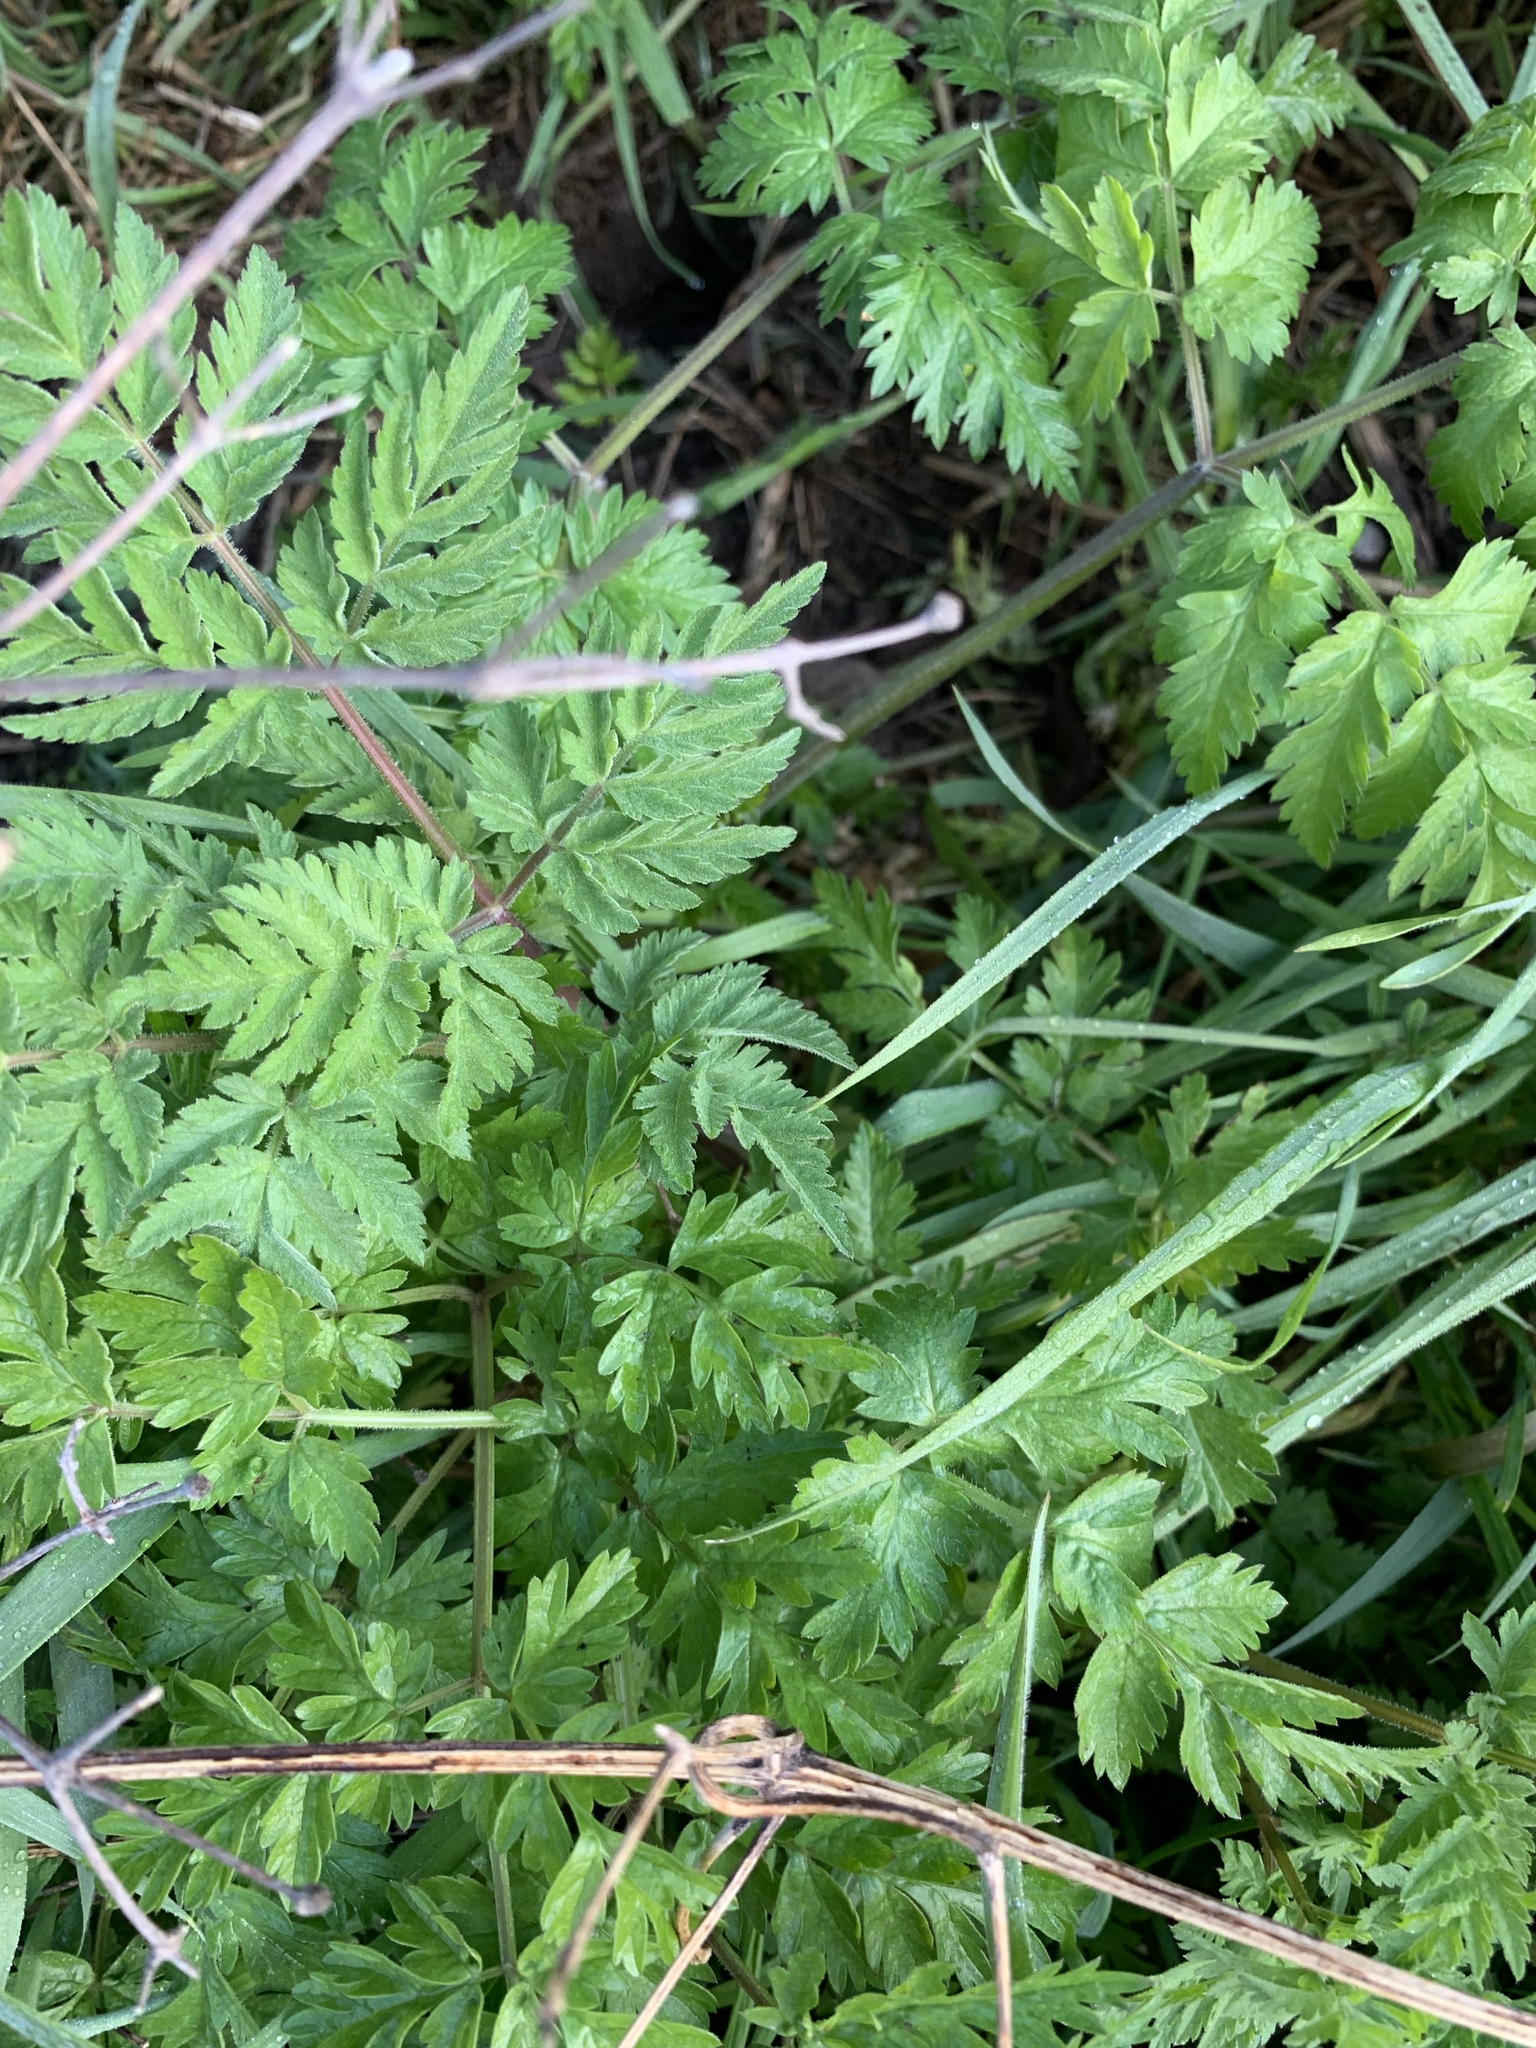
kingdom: Plantae
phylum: Tracheophyta
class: Magnoliopsida
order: Apiales
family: Apiaceae
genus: Anthriscus
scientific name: Anthriscus sylvestris
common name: Cow parsley
